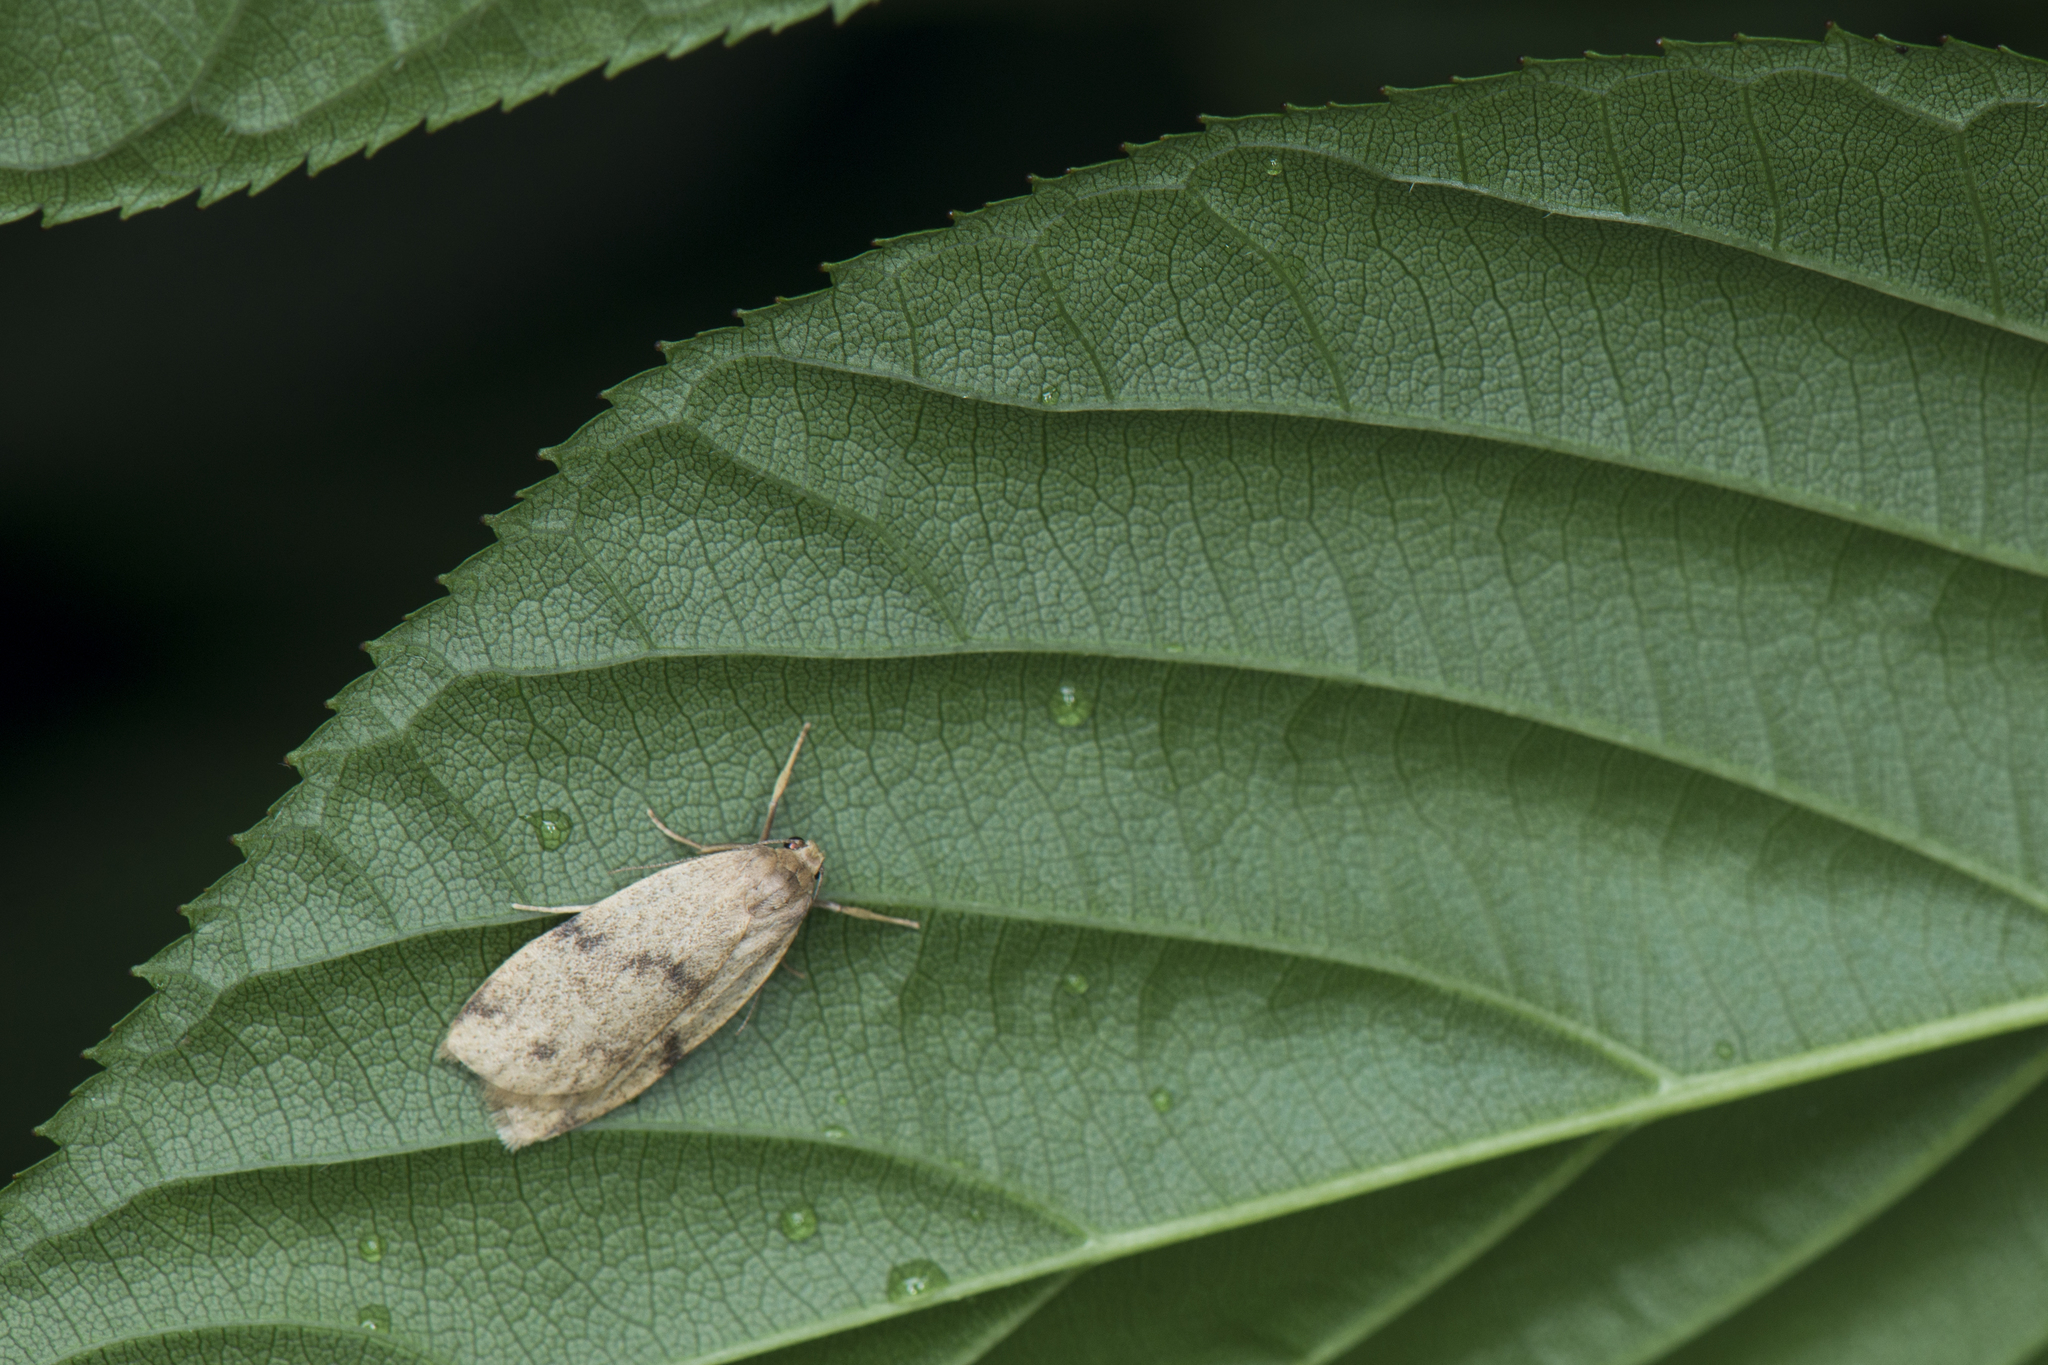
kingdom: Animalia
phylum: Arthropoda
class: Insecta
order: Lepidoptera
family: Erebidae
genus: Mithuna
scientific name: Mithuna arizana
